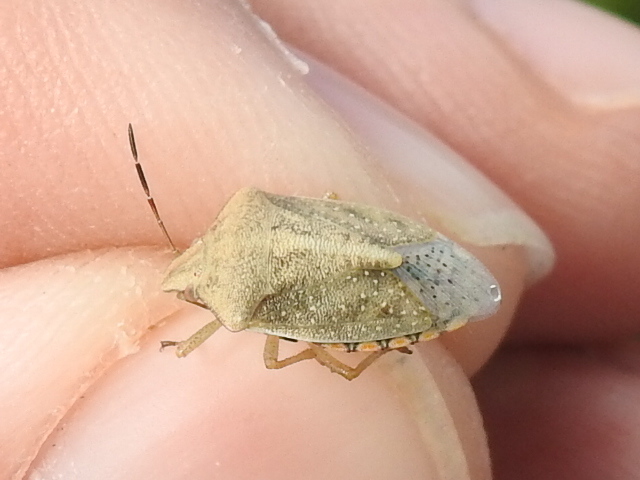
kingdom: Animalia
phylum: Arthropoda
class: Insecta
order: Hemiptera
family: Pentatomidae
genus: Thyanta
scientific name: Thyanta accerra
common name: Stink bug
